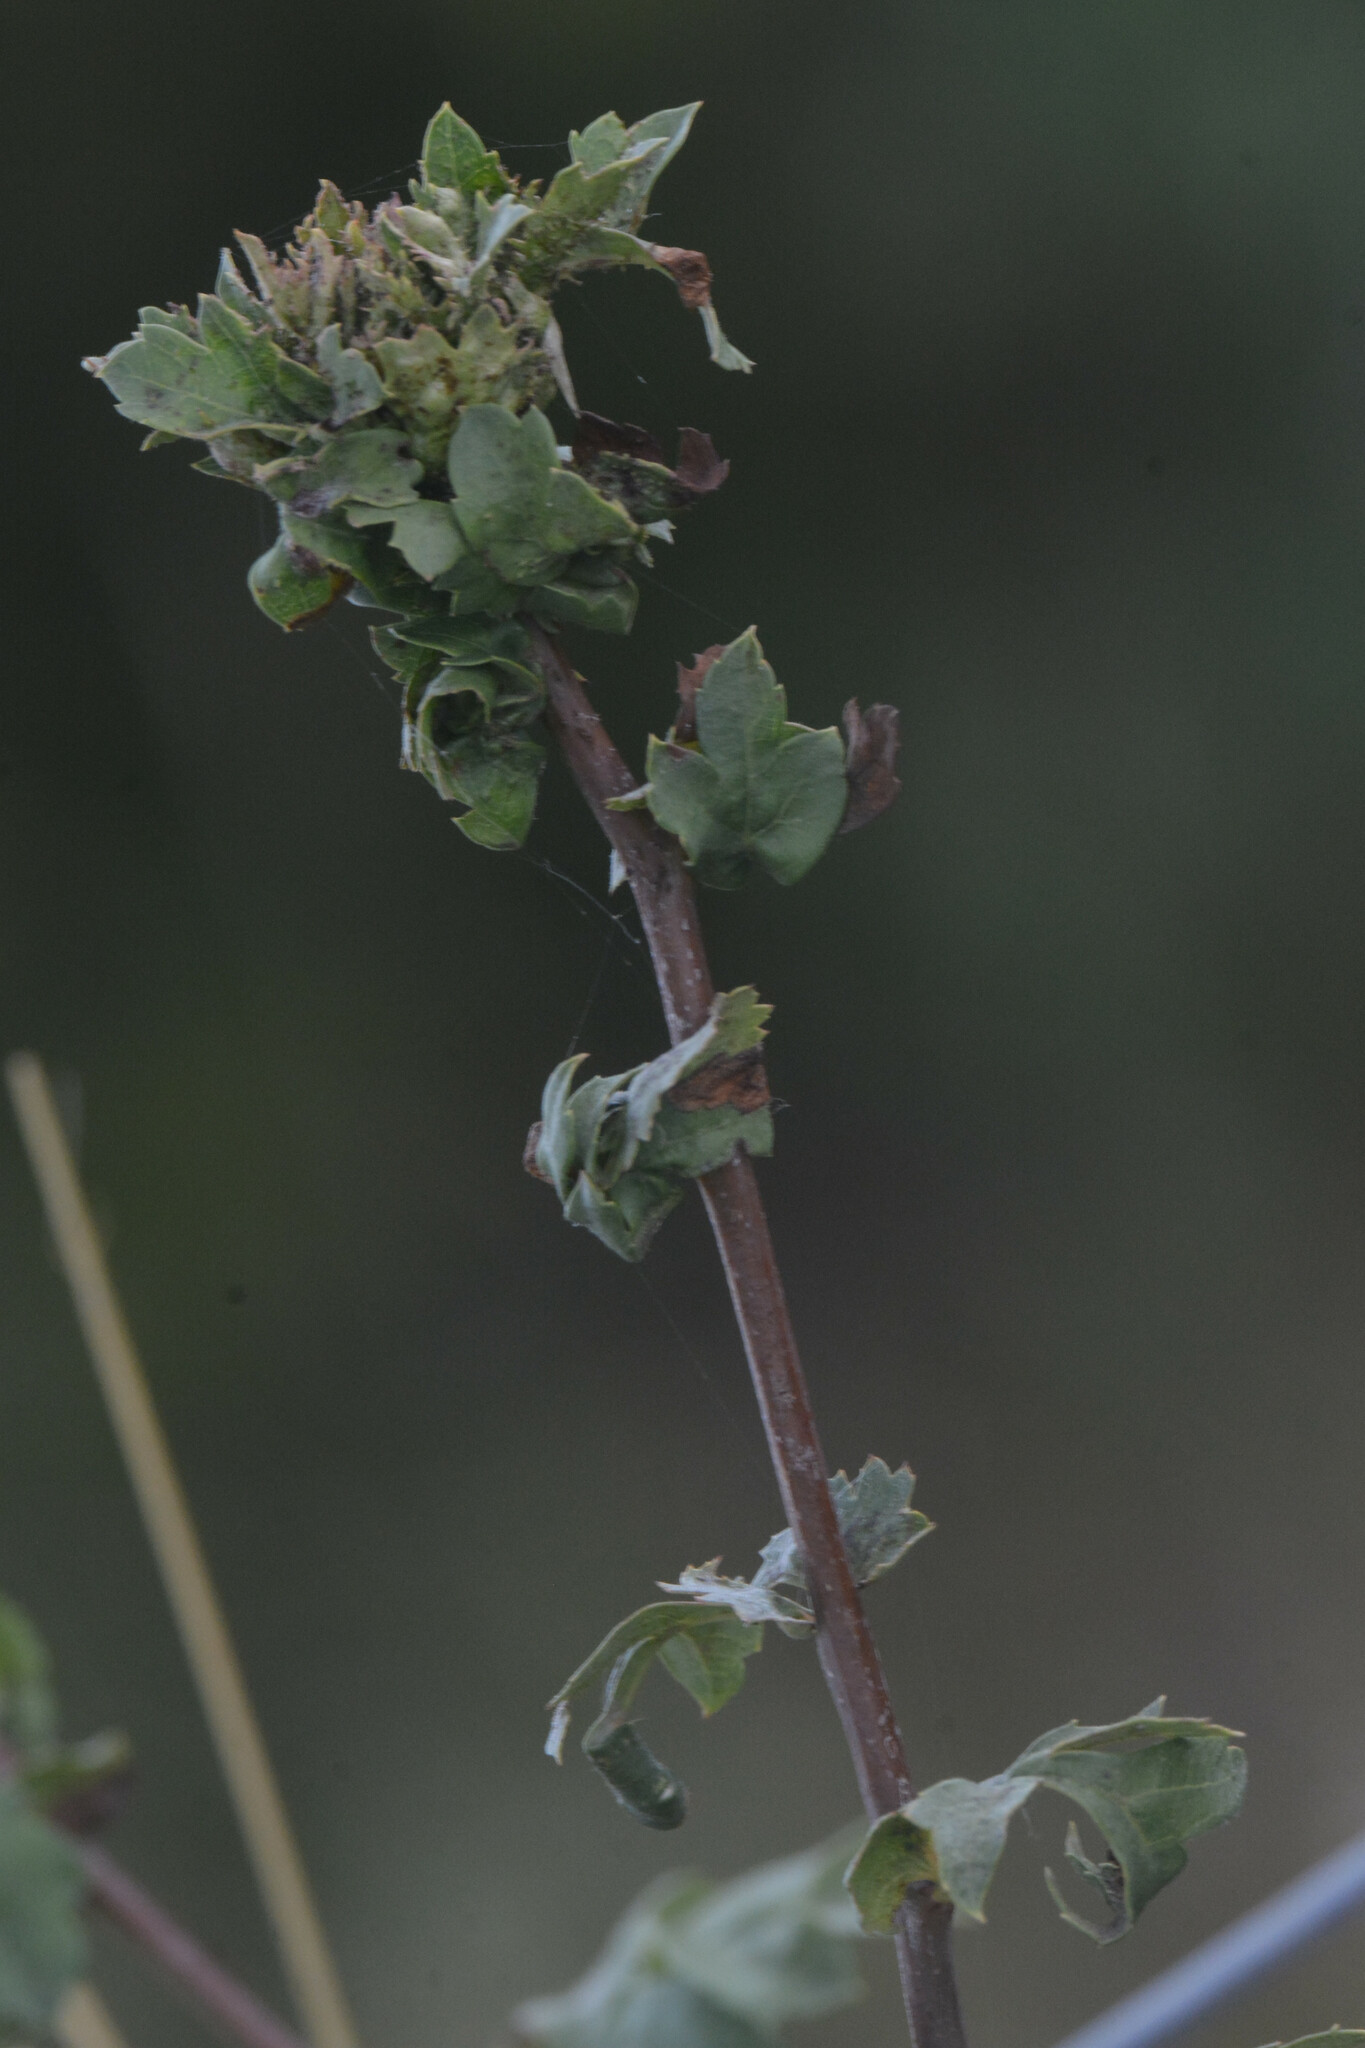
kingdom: Animalia
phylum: Arthropoda
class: Insecta
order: Diptera
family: Cecidomyiidae
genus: Dasineura
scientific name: Dasineura crataegi
